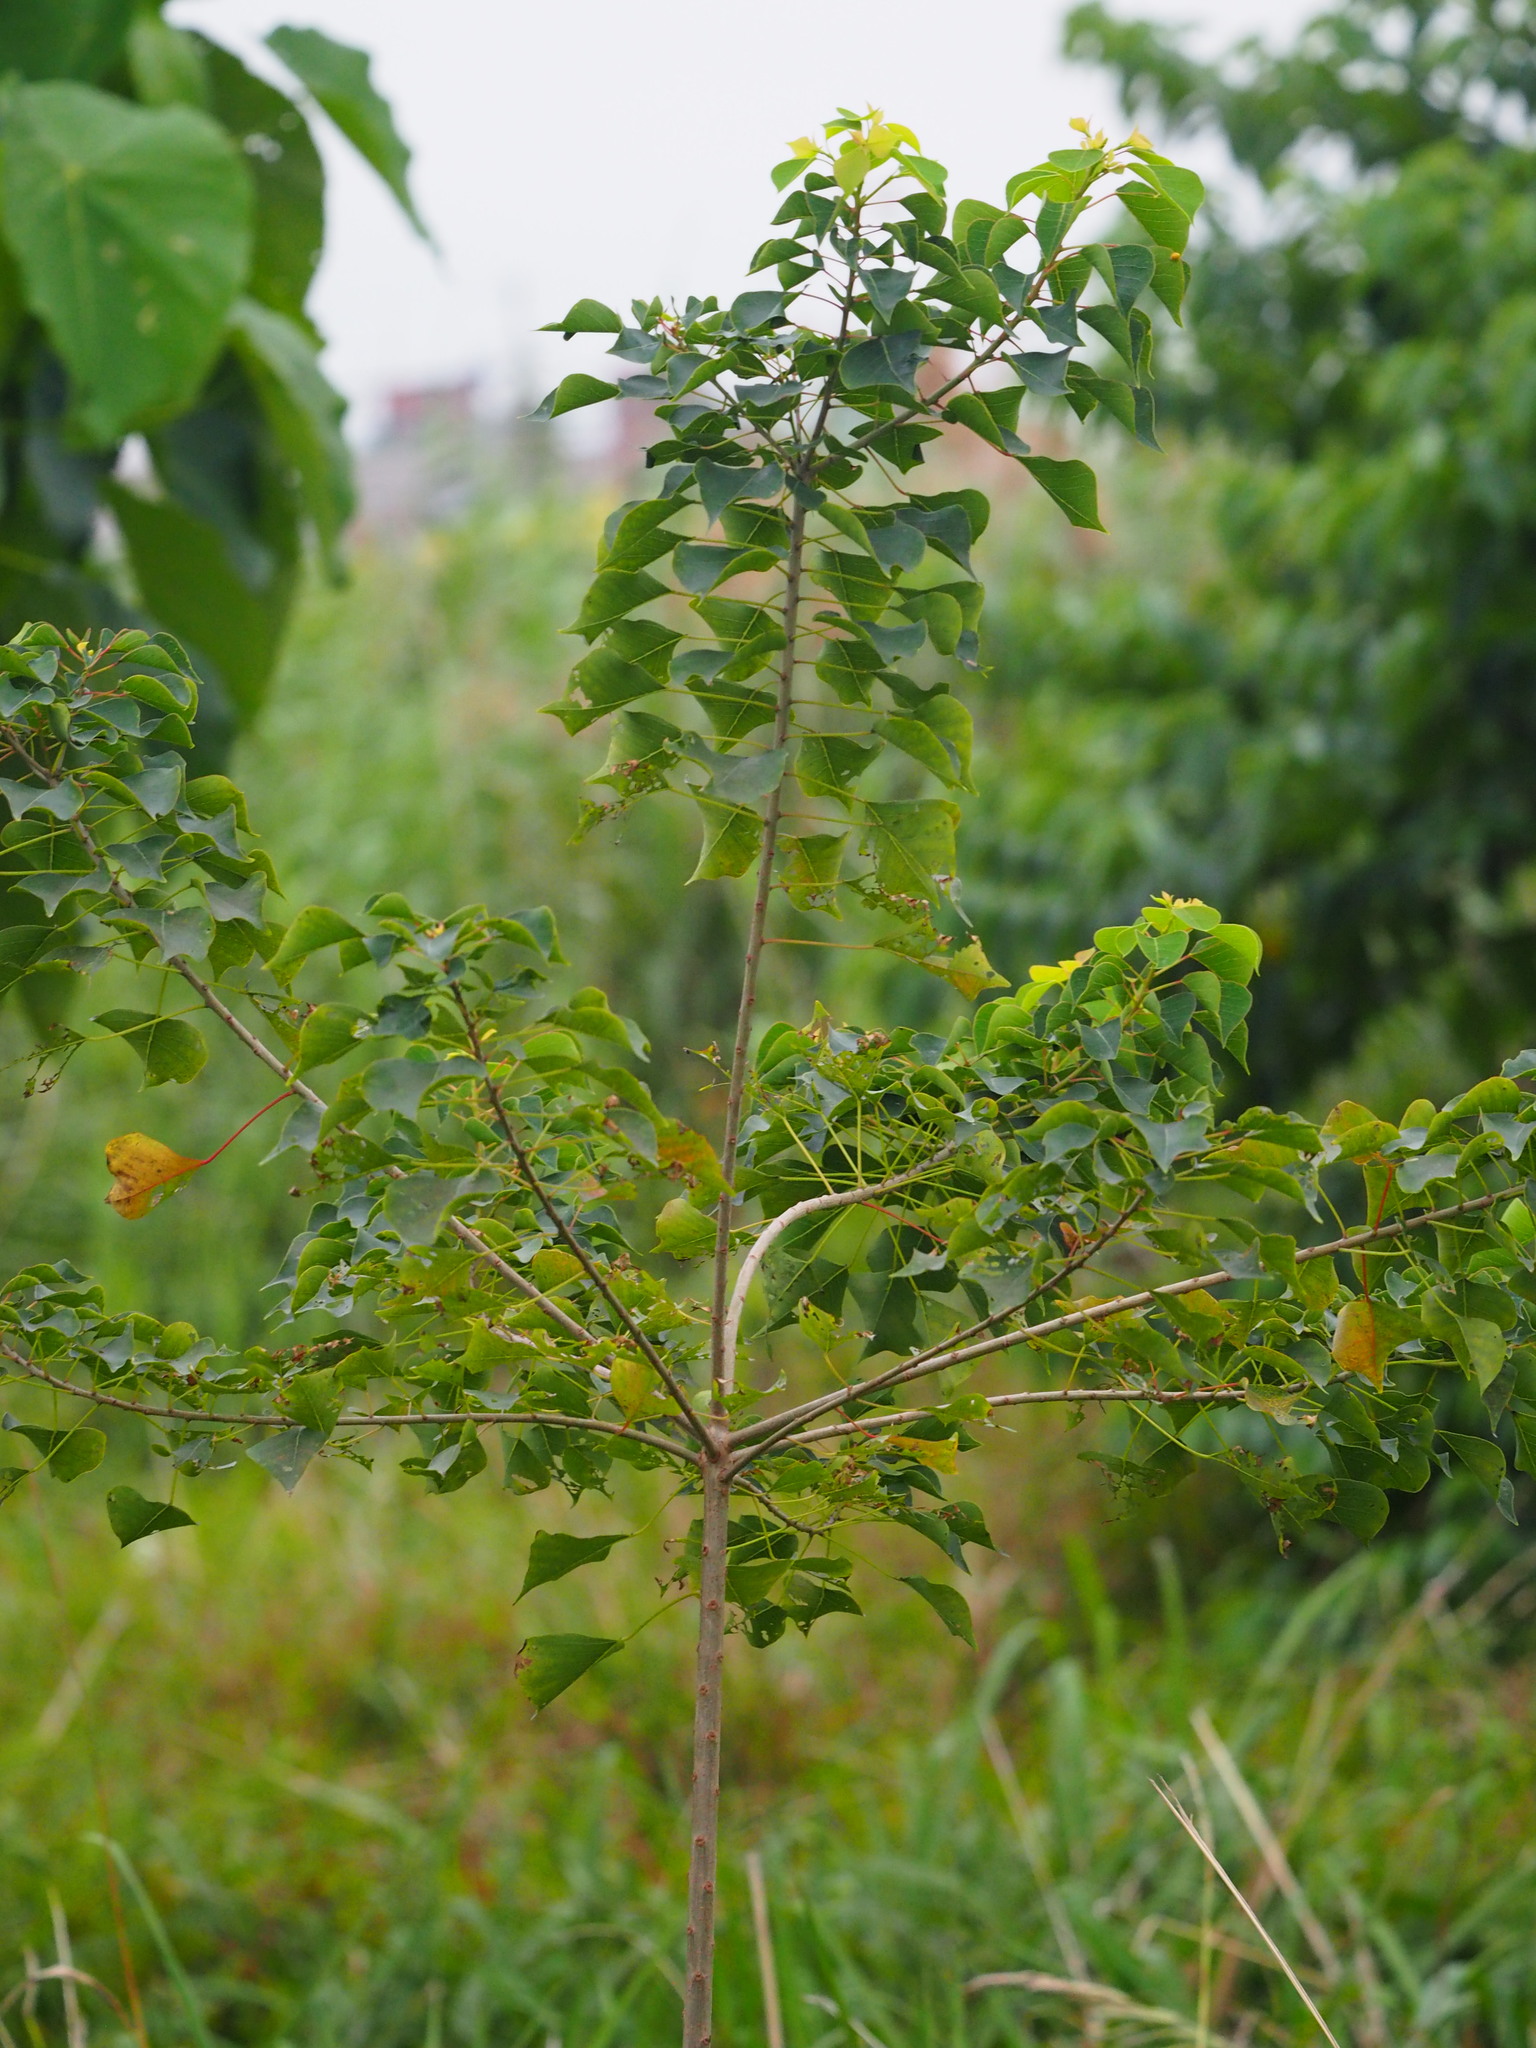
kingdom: Plantae
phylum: Tracheophyta
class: Magnoliopsida
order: Malpighiales
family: Euphorbiaceae
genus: Triadica
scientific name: Triadica sebifera
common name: Chinese tallow
